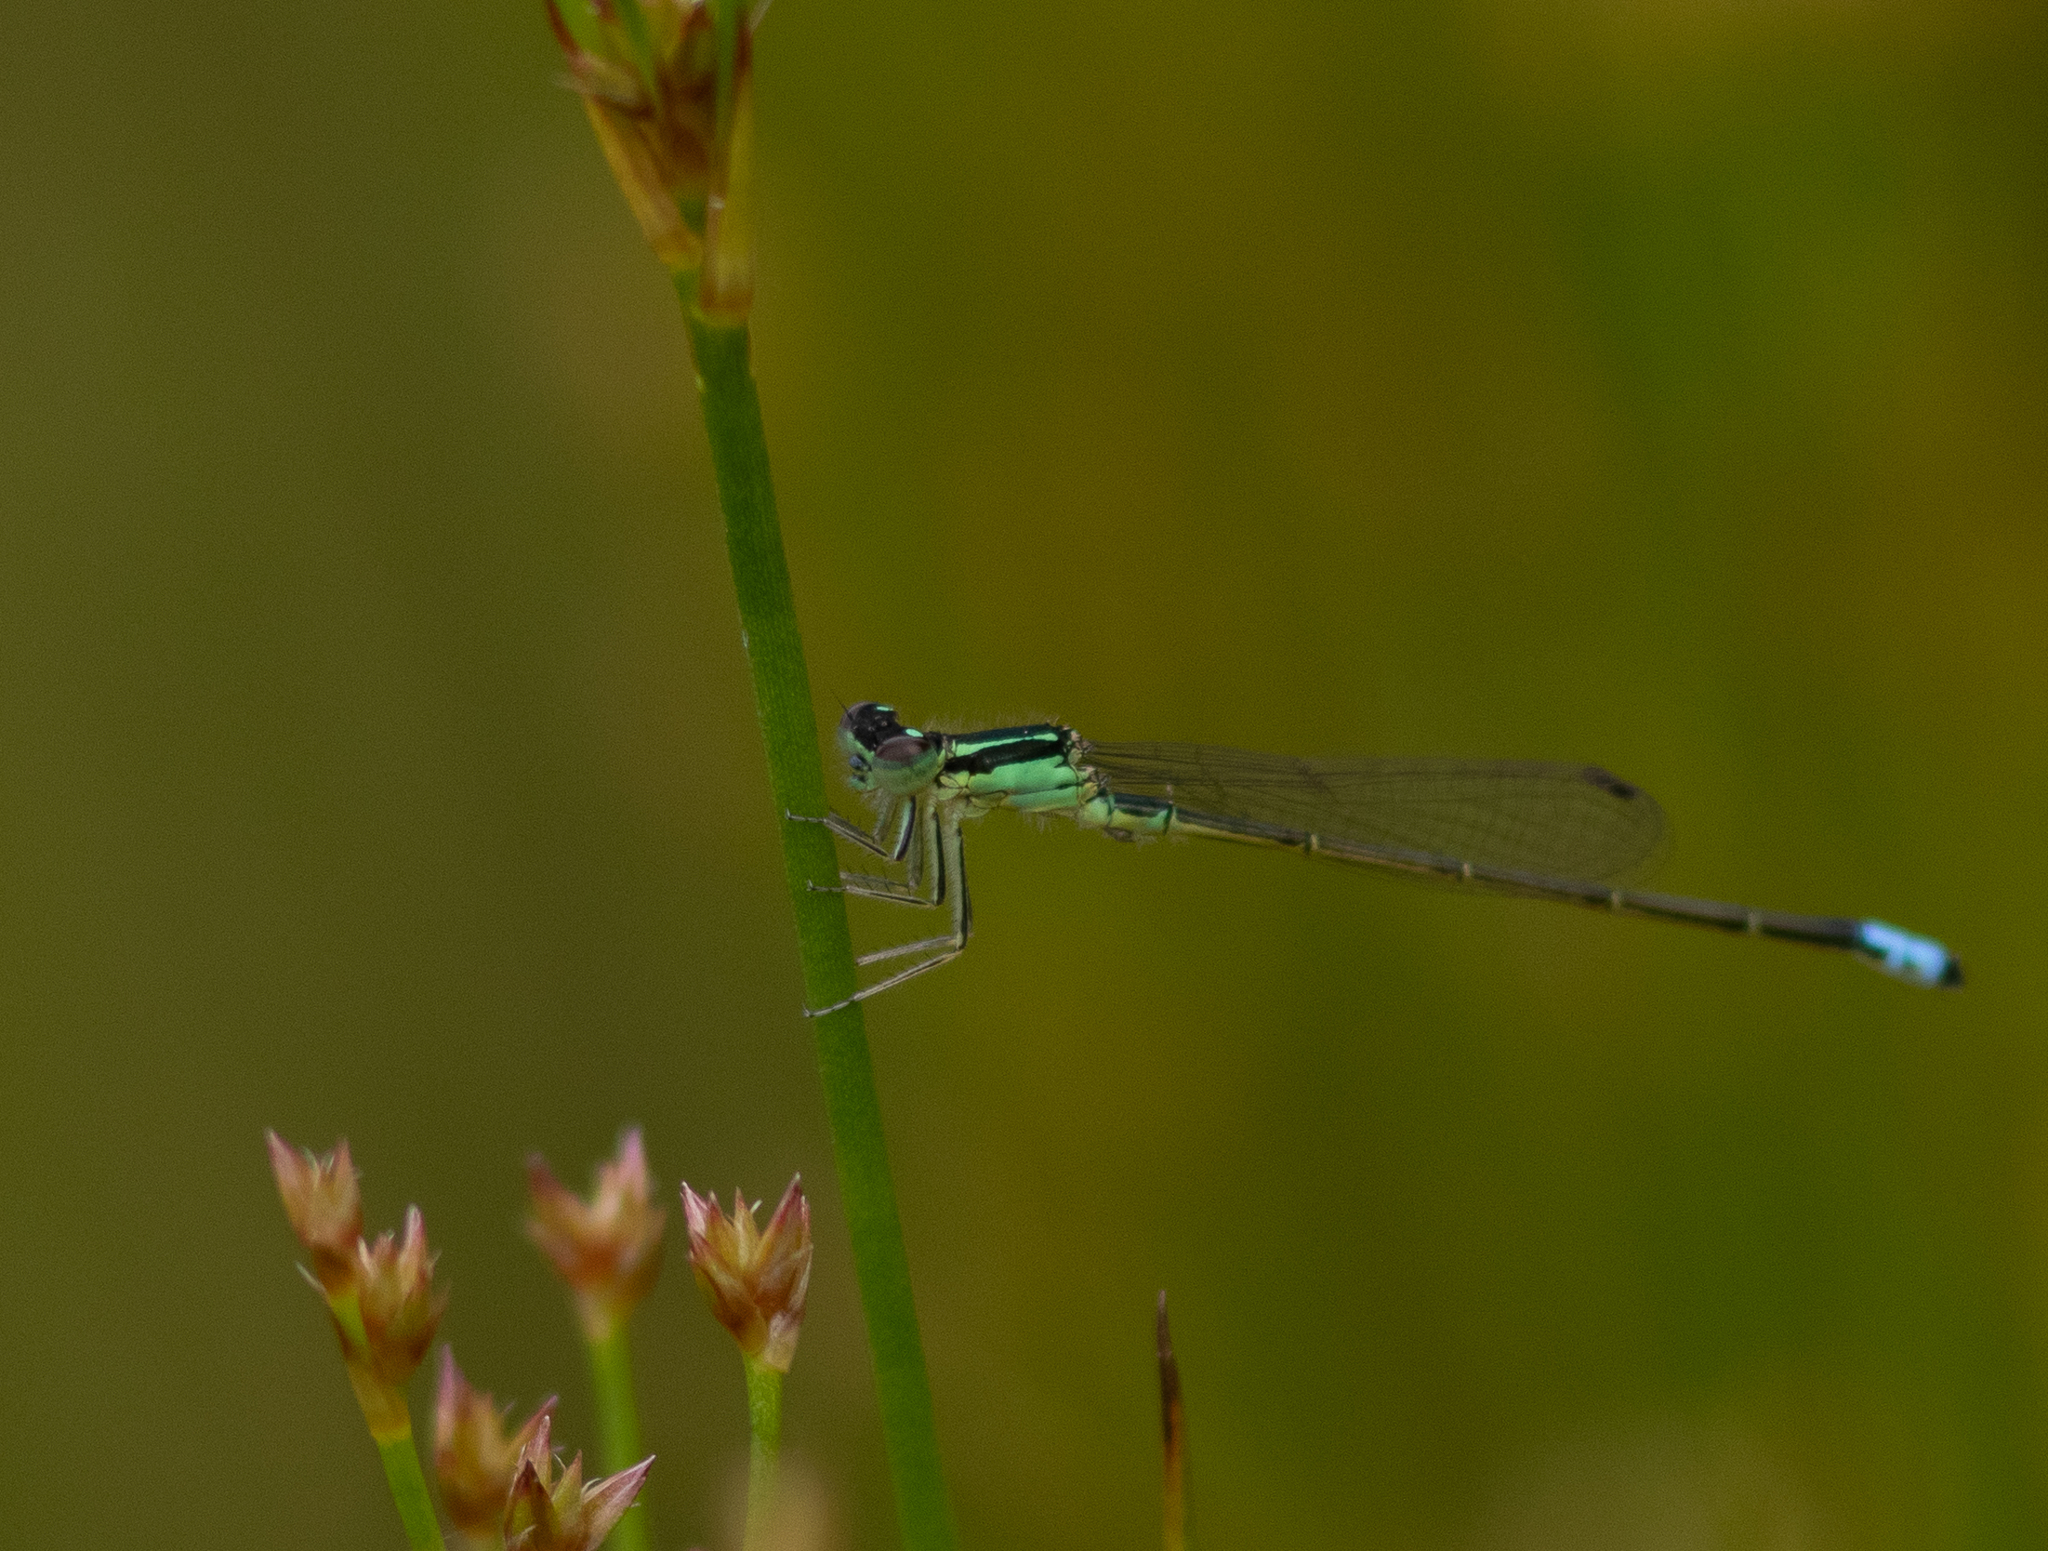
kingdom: Animalia
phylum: Arthropoda
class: Insecta
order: Odonata
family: Coenagrionidae
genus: Ischnura
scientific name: Ischnura verticalis
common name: Eastern forktail
